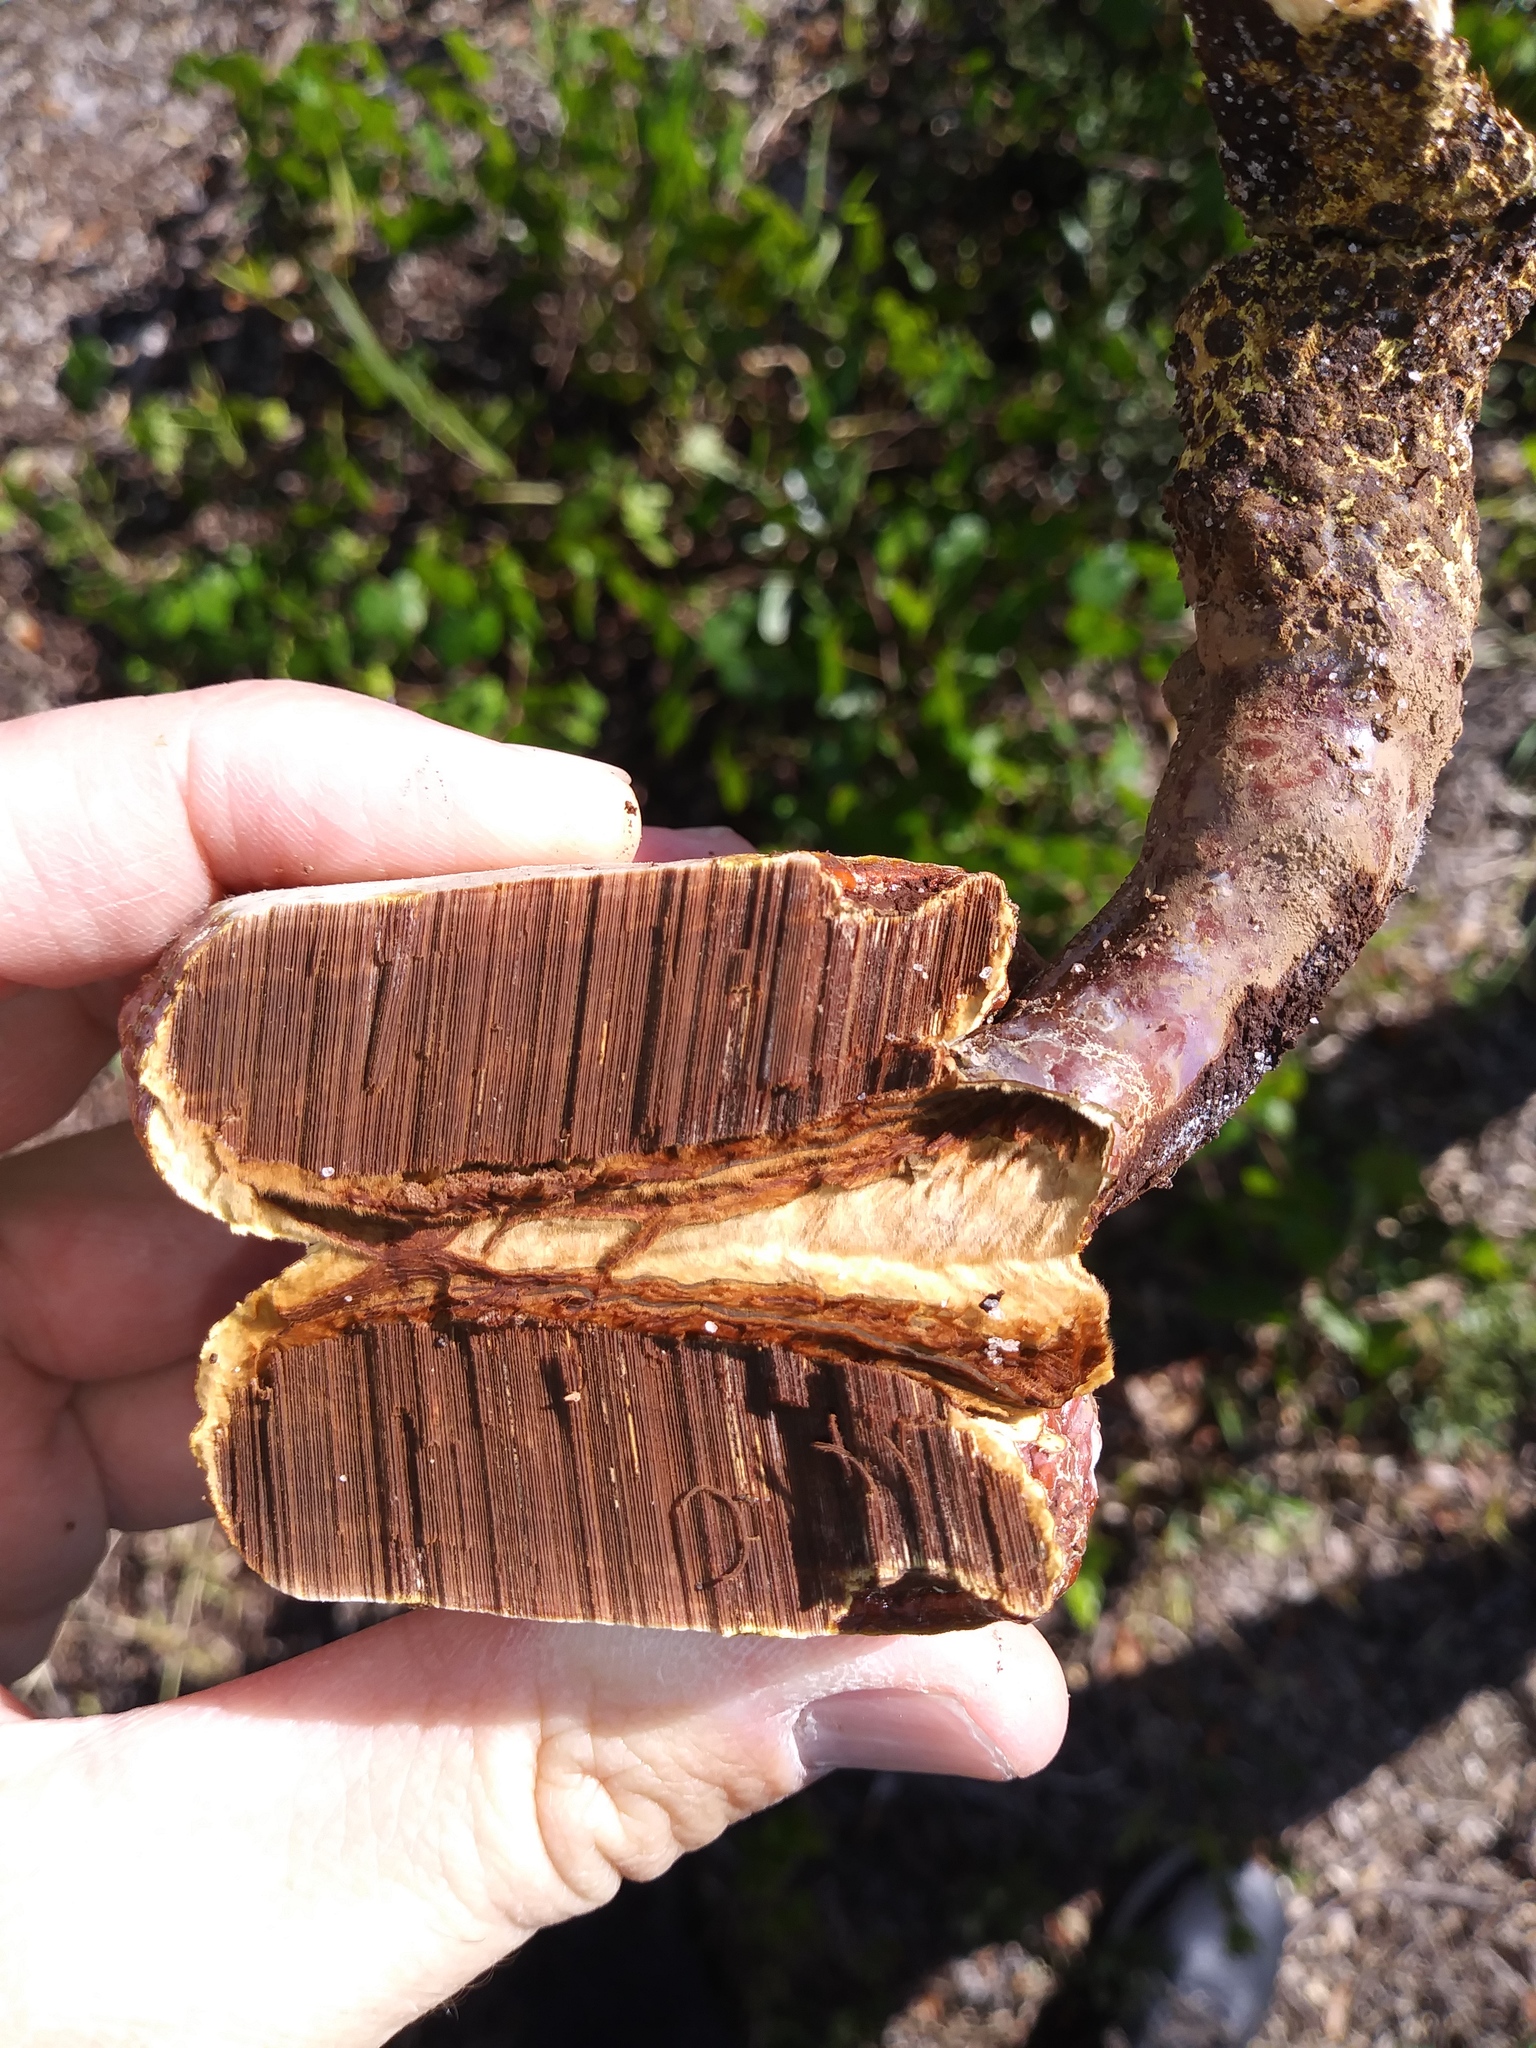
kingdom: Fungi
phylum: Basidiomycota
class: Agaricomycetes
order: Polyporales
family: Polyporaceae
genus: Ganoderma
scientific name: Ganoderma curtisii
